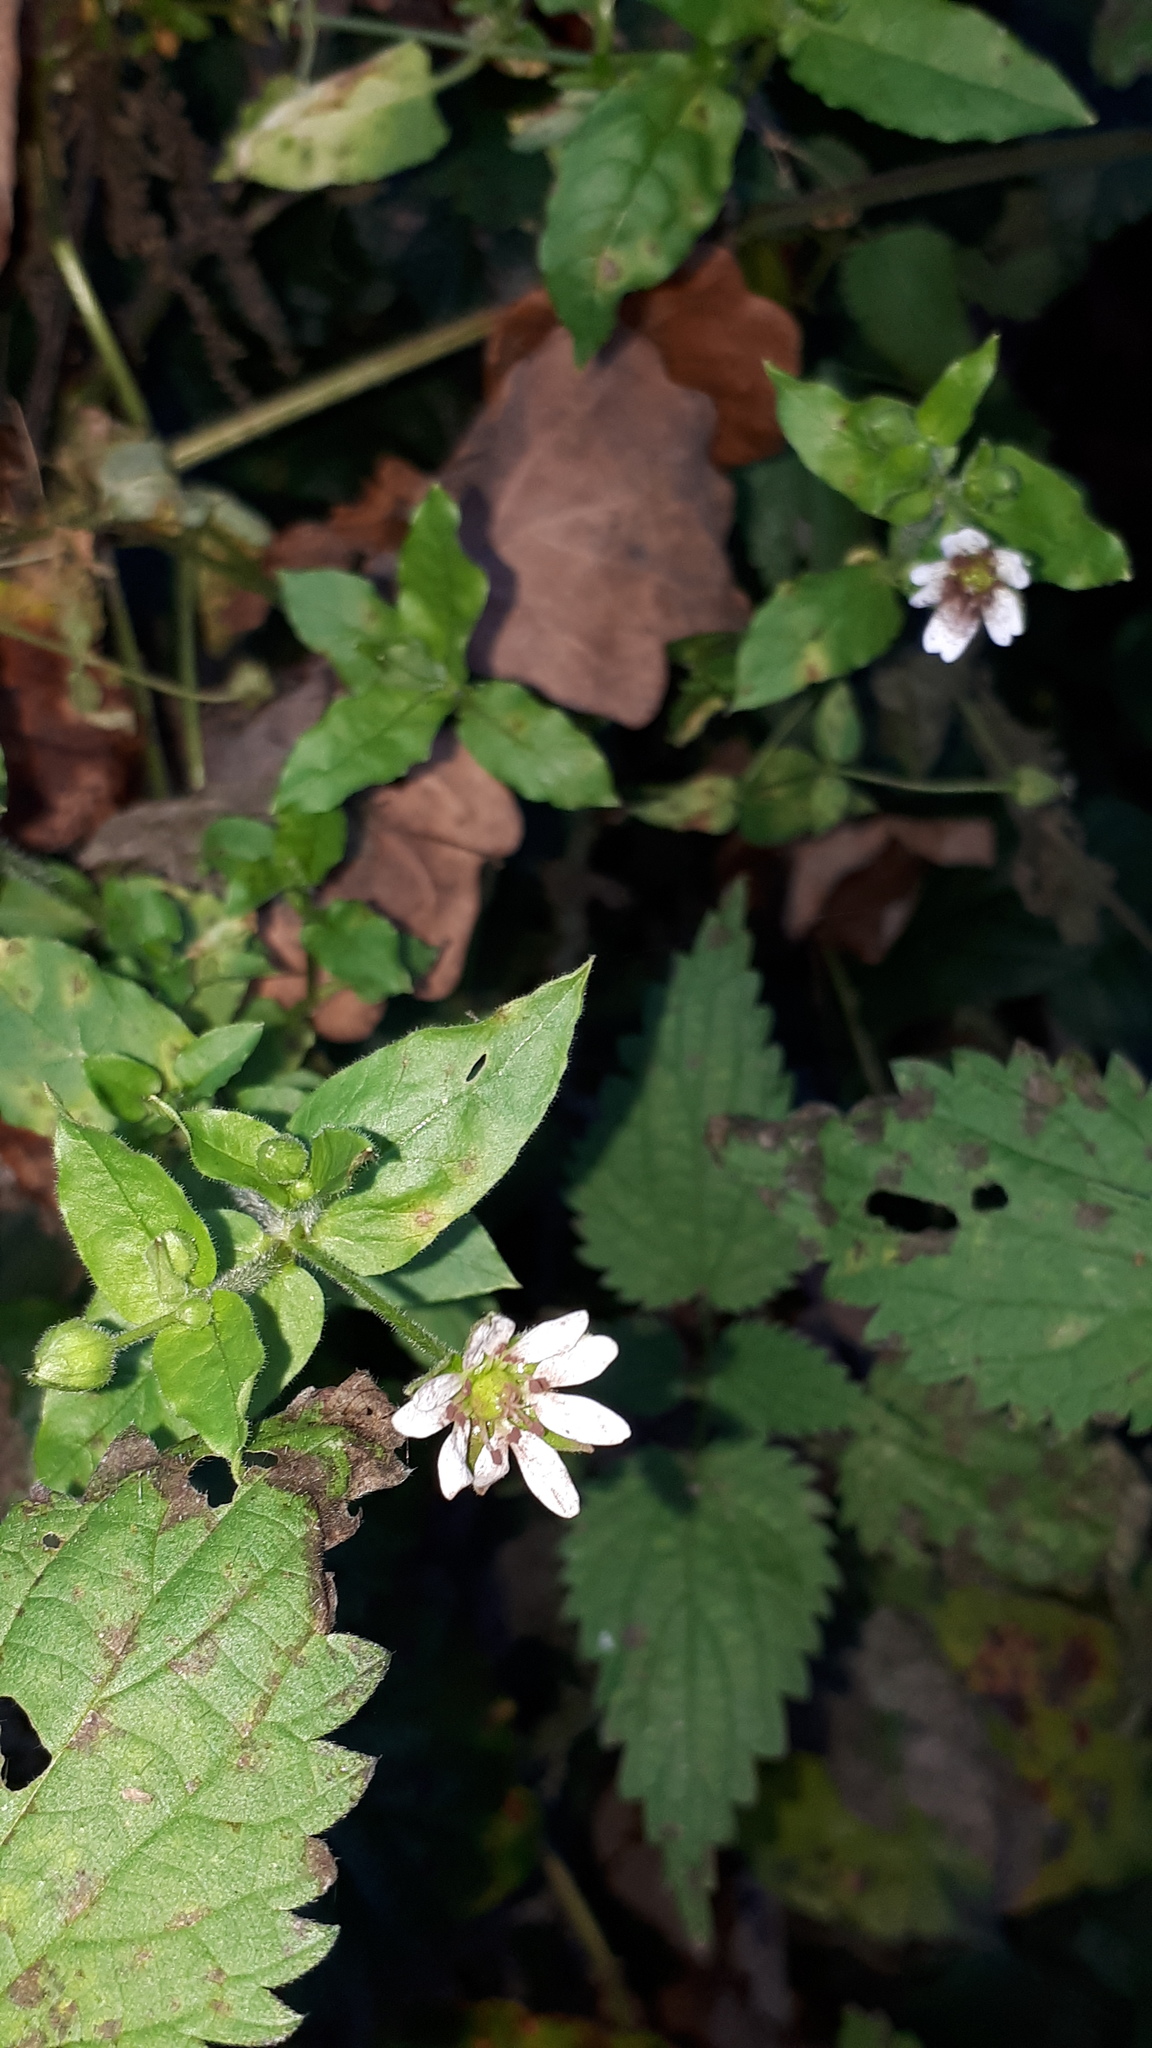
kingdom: Plantae
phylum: Tracheophyta
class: Magnoliopsida
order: Caryophyllales
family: Caryophyllaceae
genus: Stellaria
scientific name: Stellaria aquatica
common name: Water chickweed
